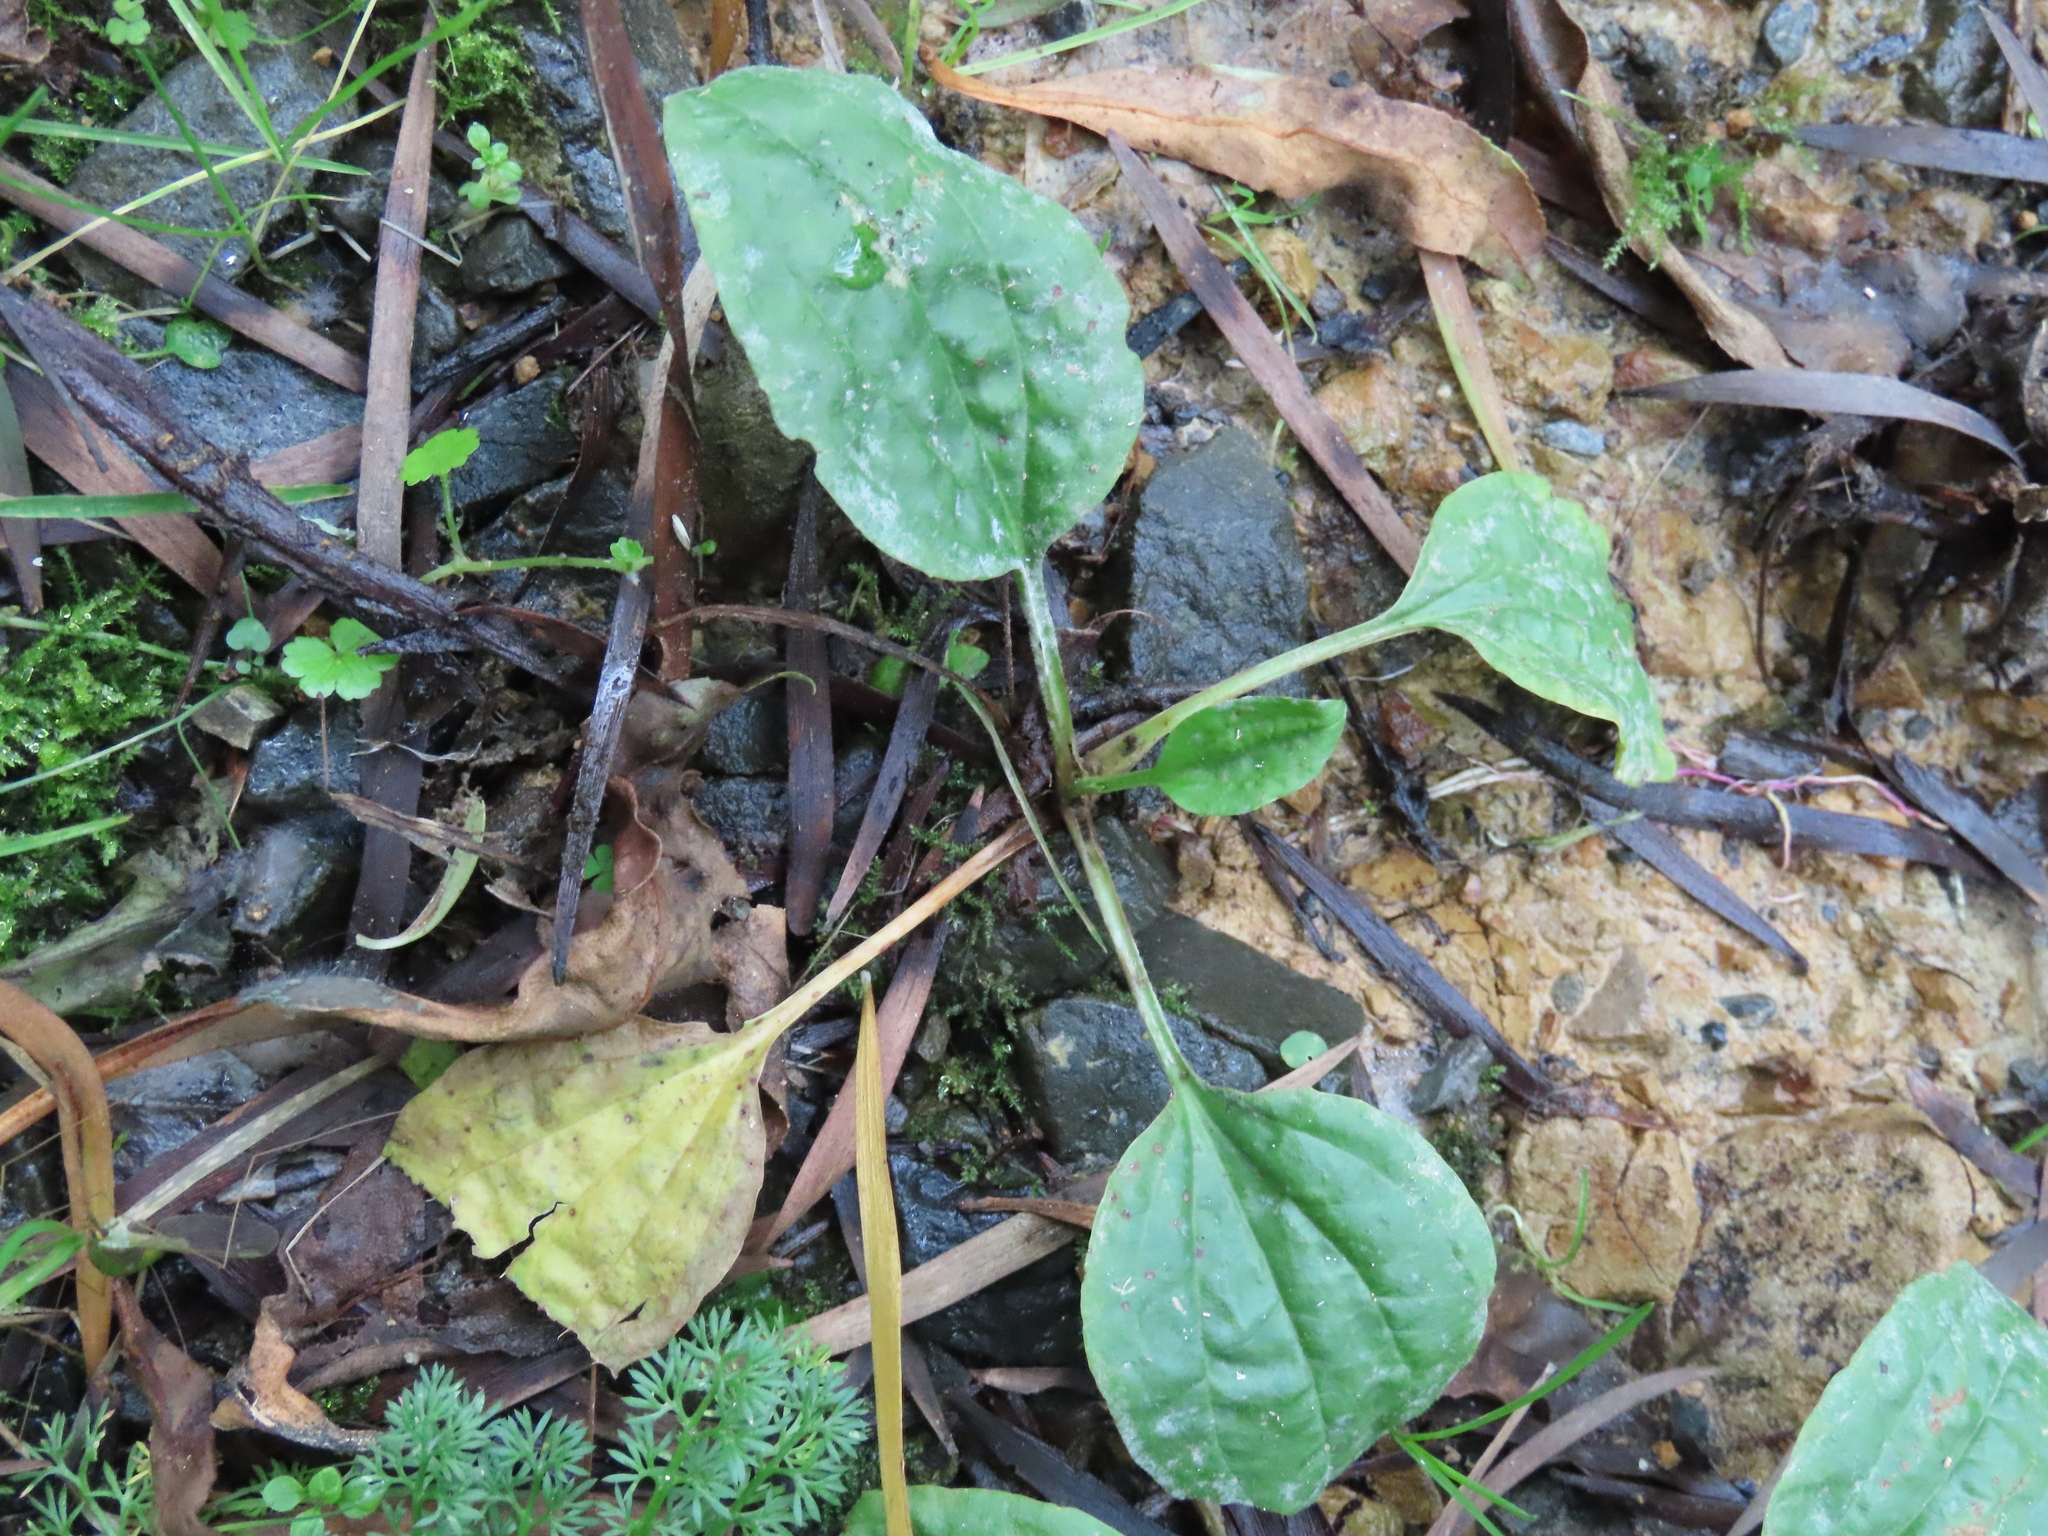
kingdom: Plantae
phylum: Tracheophyta
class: Magnoliopsida
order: Lamiales
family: Plantaginaceae
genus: Plantago
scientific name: Plantago major
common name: Common plantain
